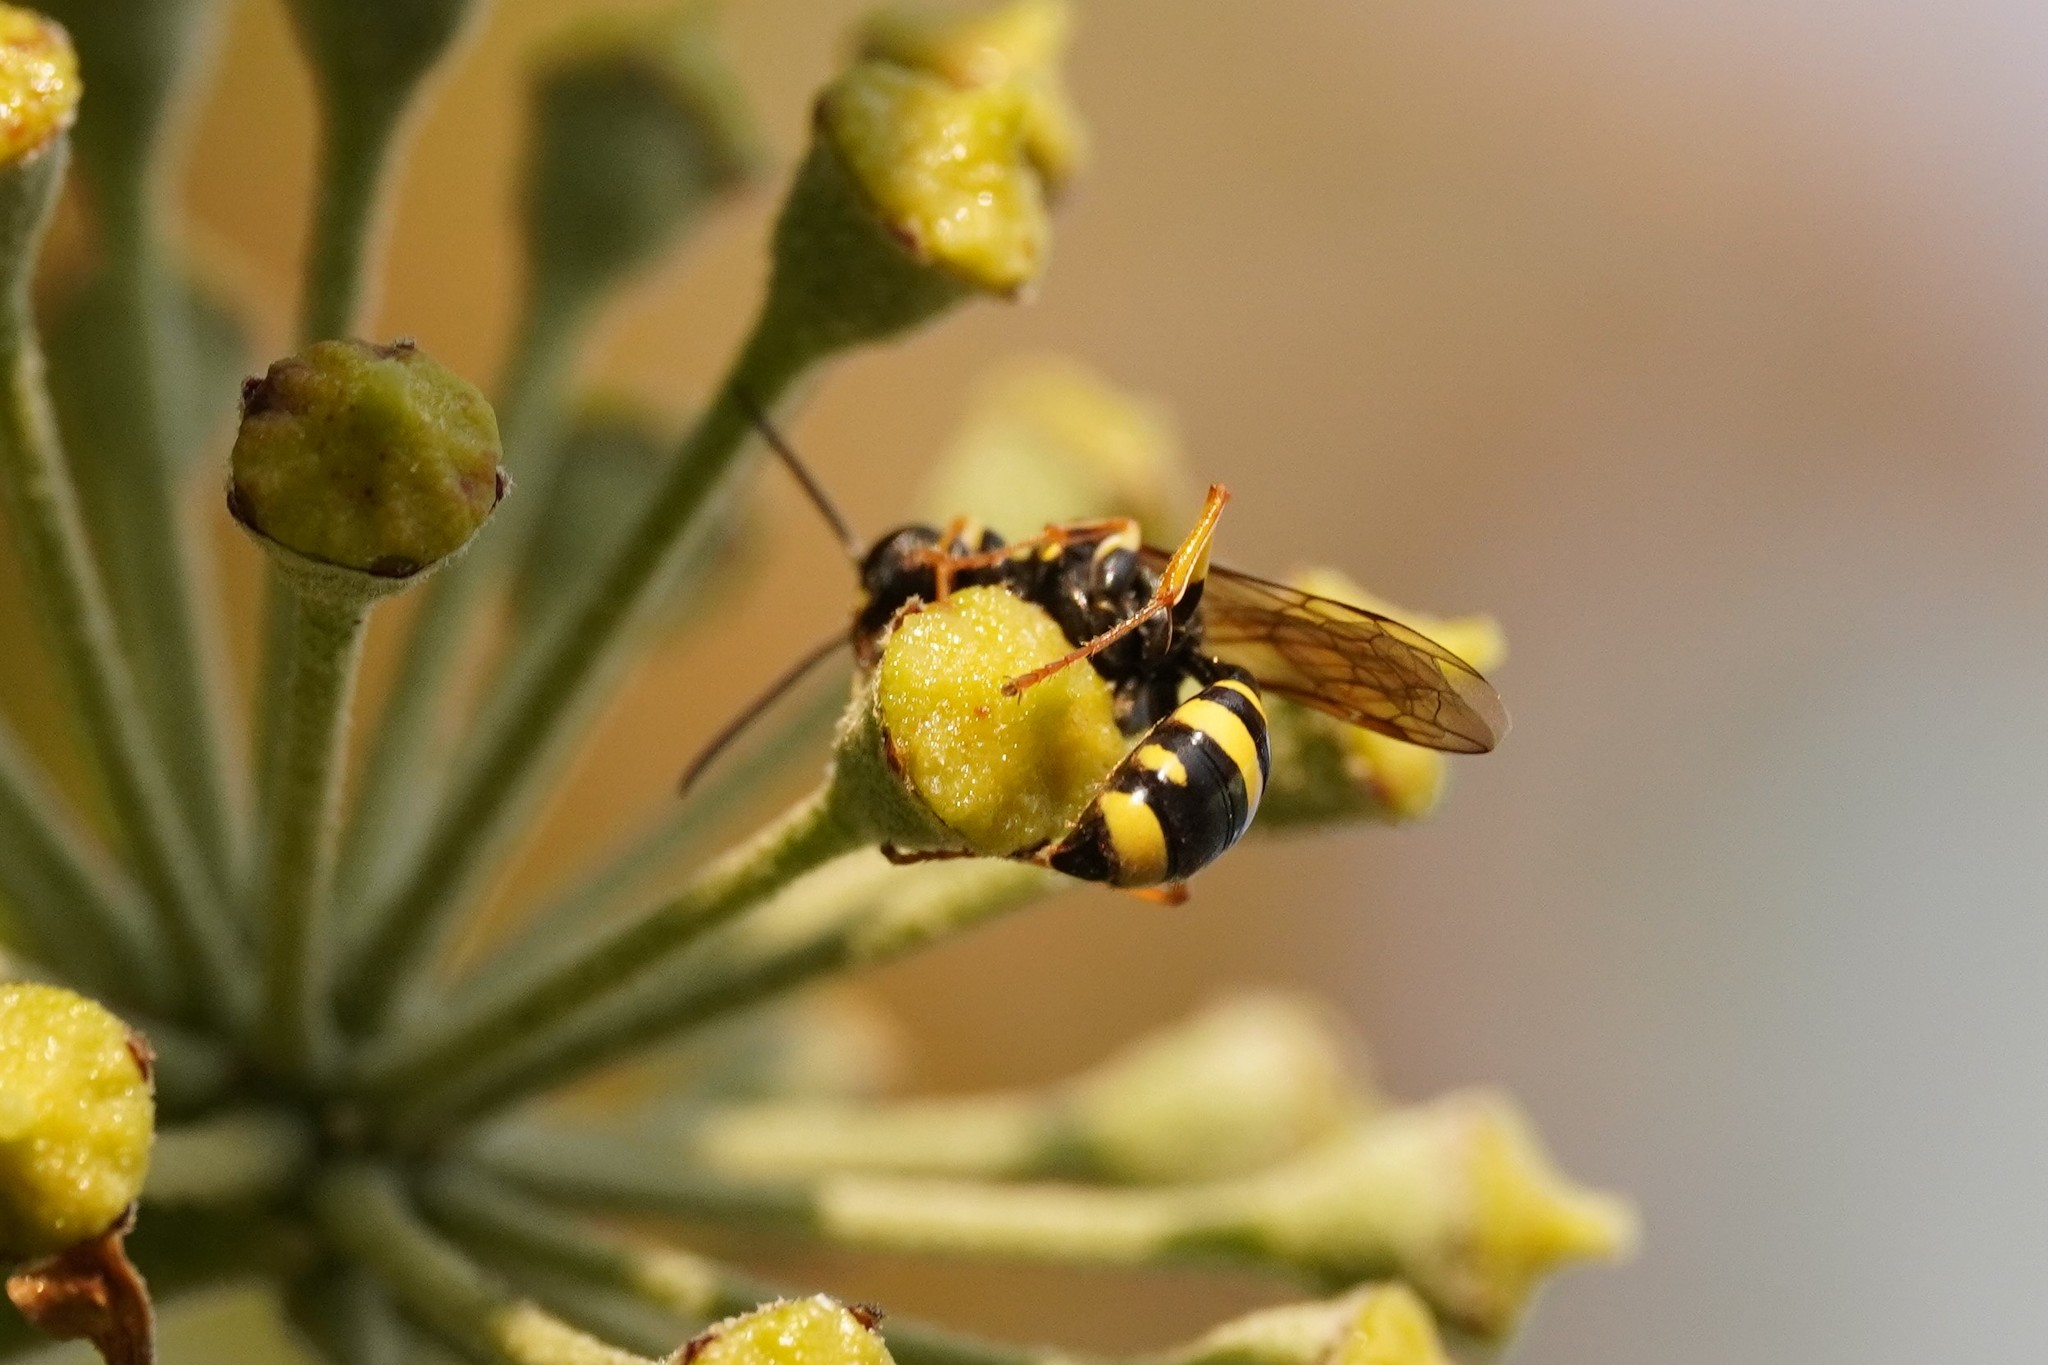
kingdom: Animalia
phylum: Arthropoda
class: Insecta
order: Hymenoptera
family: Crabronidae
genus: Mellinus
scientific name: Mellinus arvensis
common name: Field digger wasp
